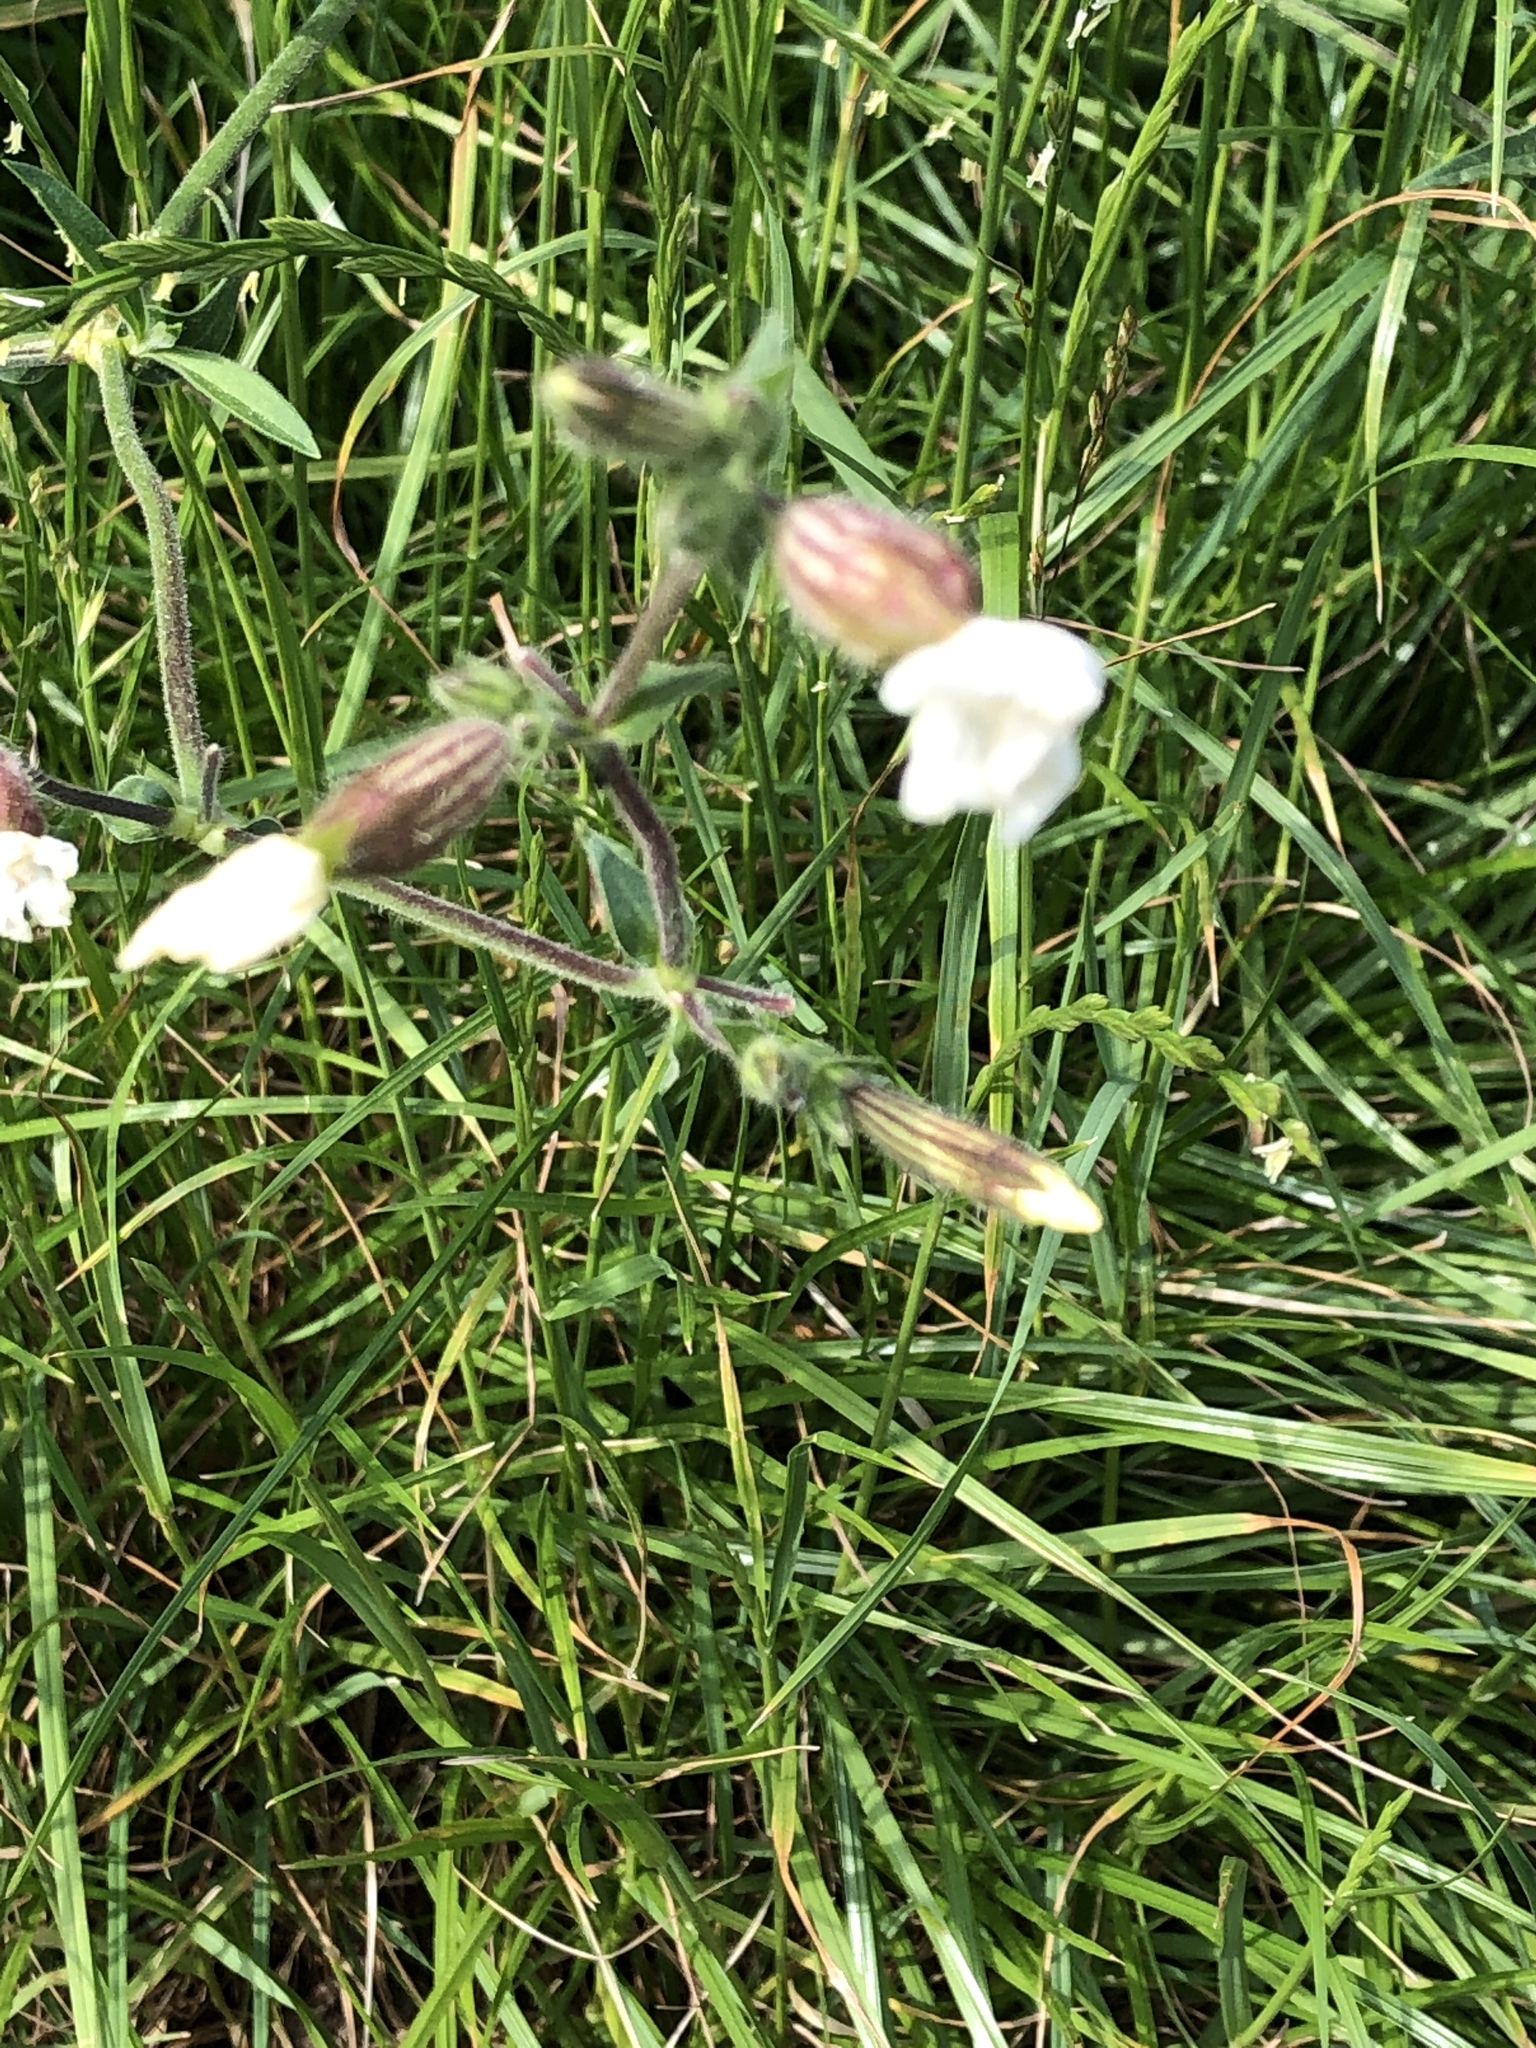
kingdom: Plantae
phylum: Tracheophyta
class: Magnoliopsida
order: Caryophyllales
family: Caryophyllaceae
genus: Silene
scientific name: Silene latifolia
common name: White campion
